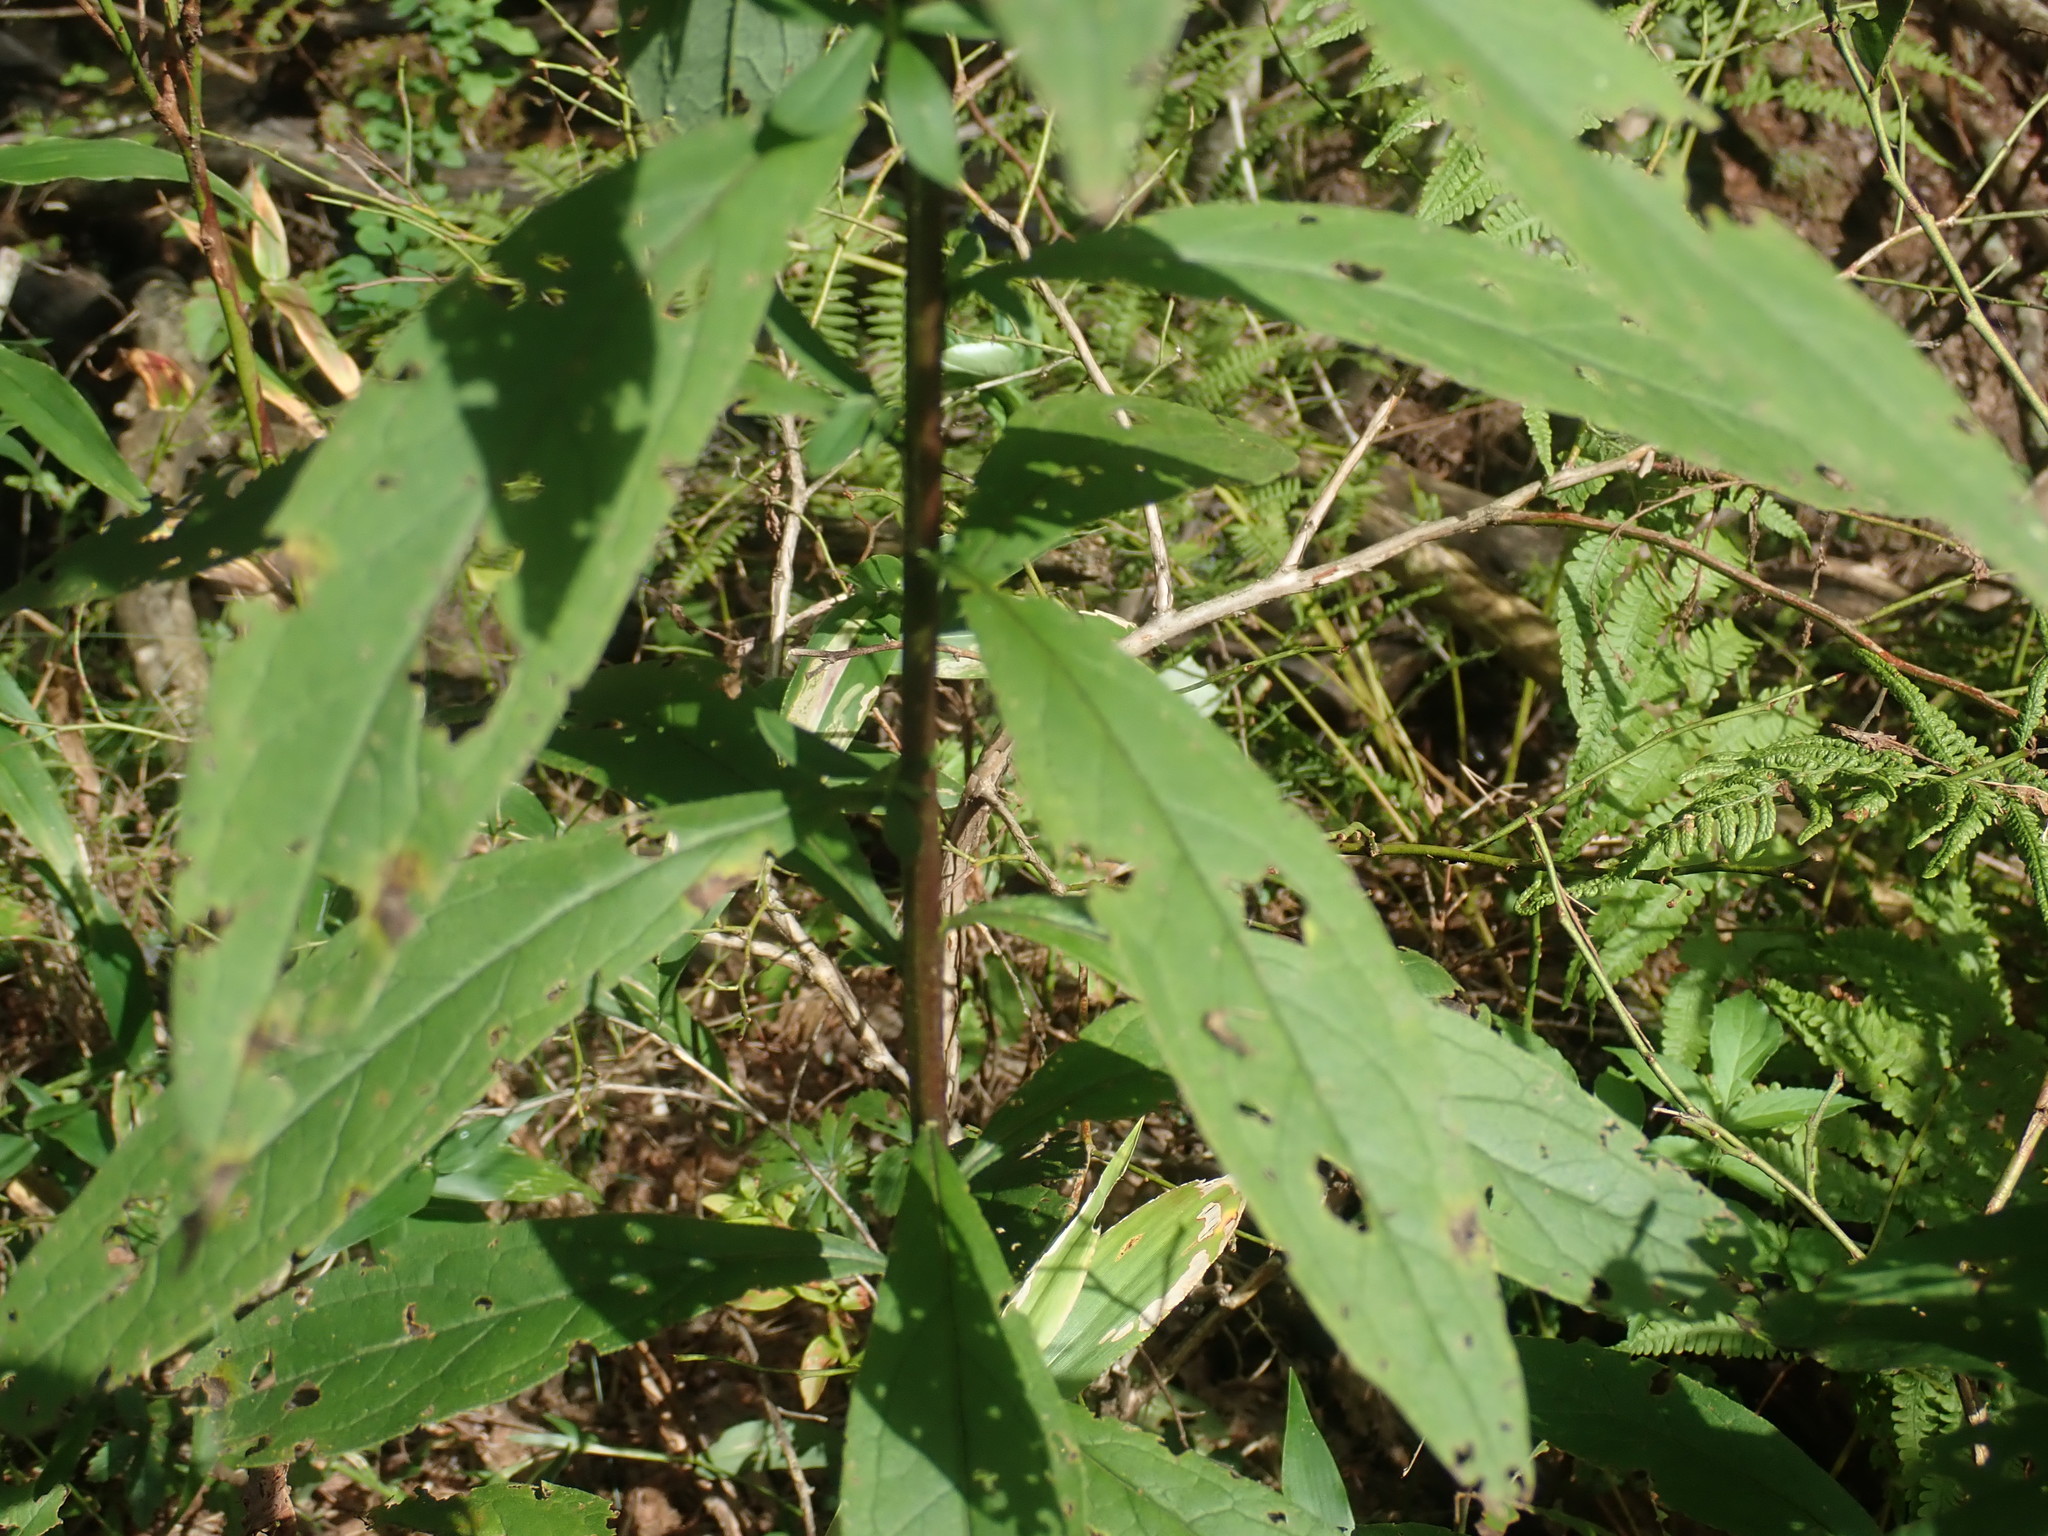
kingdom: Plantae
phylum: Tracheophyta
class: Magnoliopsida
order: Asterales
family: Asteraceae
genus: Doellingeria
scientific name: Doellingeria umbellata
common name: Flat-top white aster
